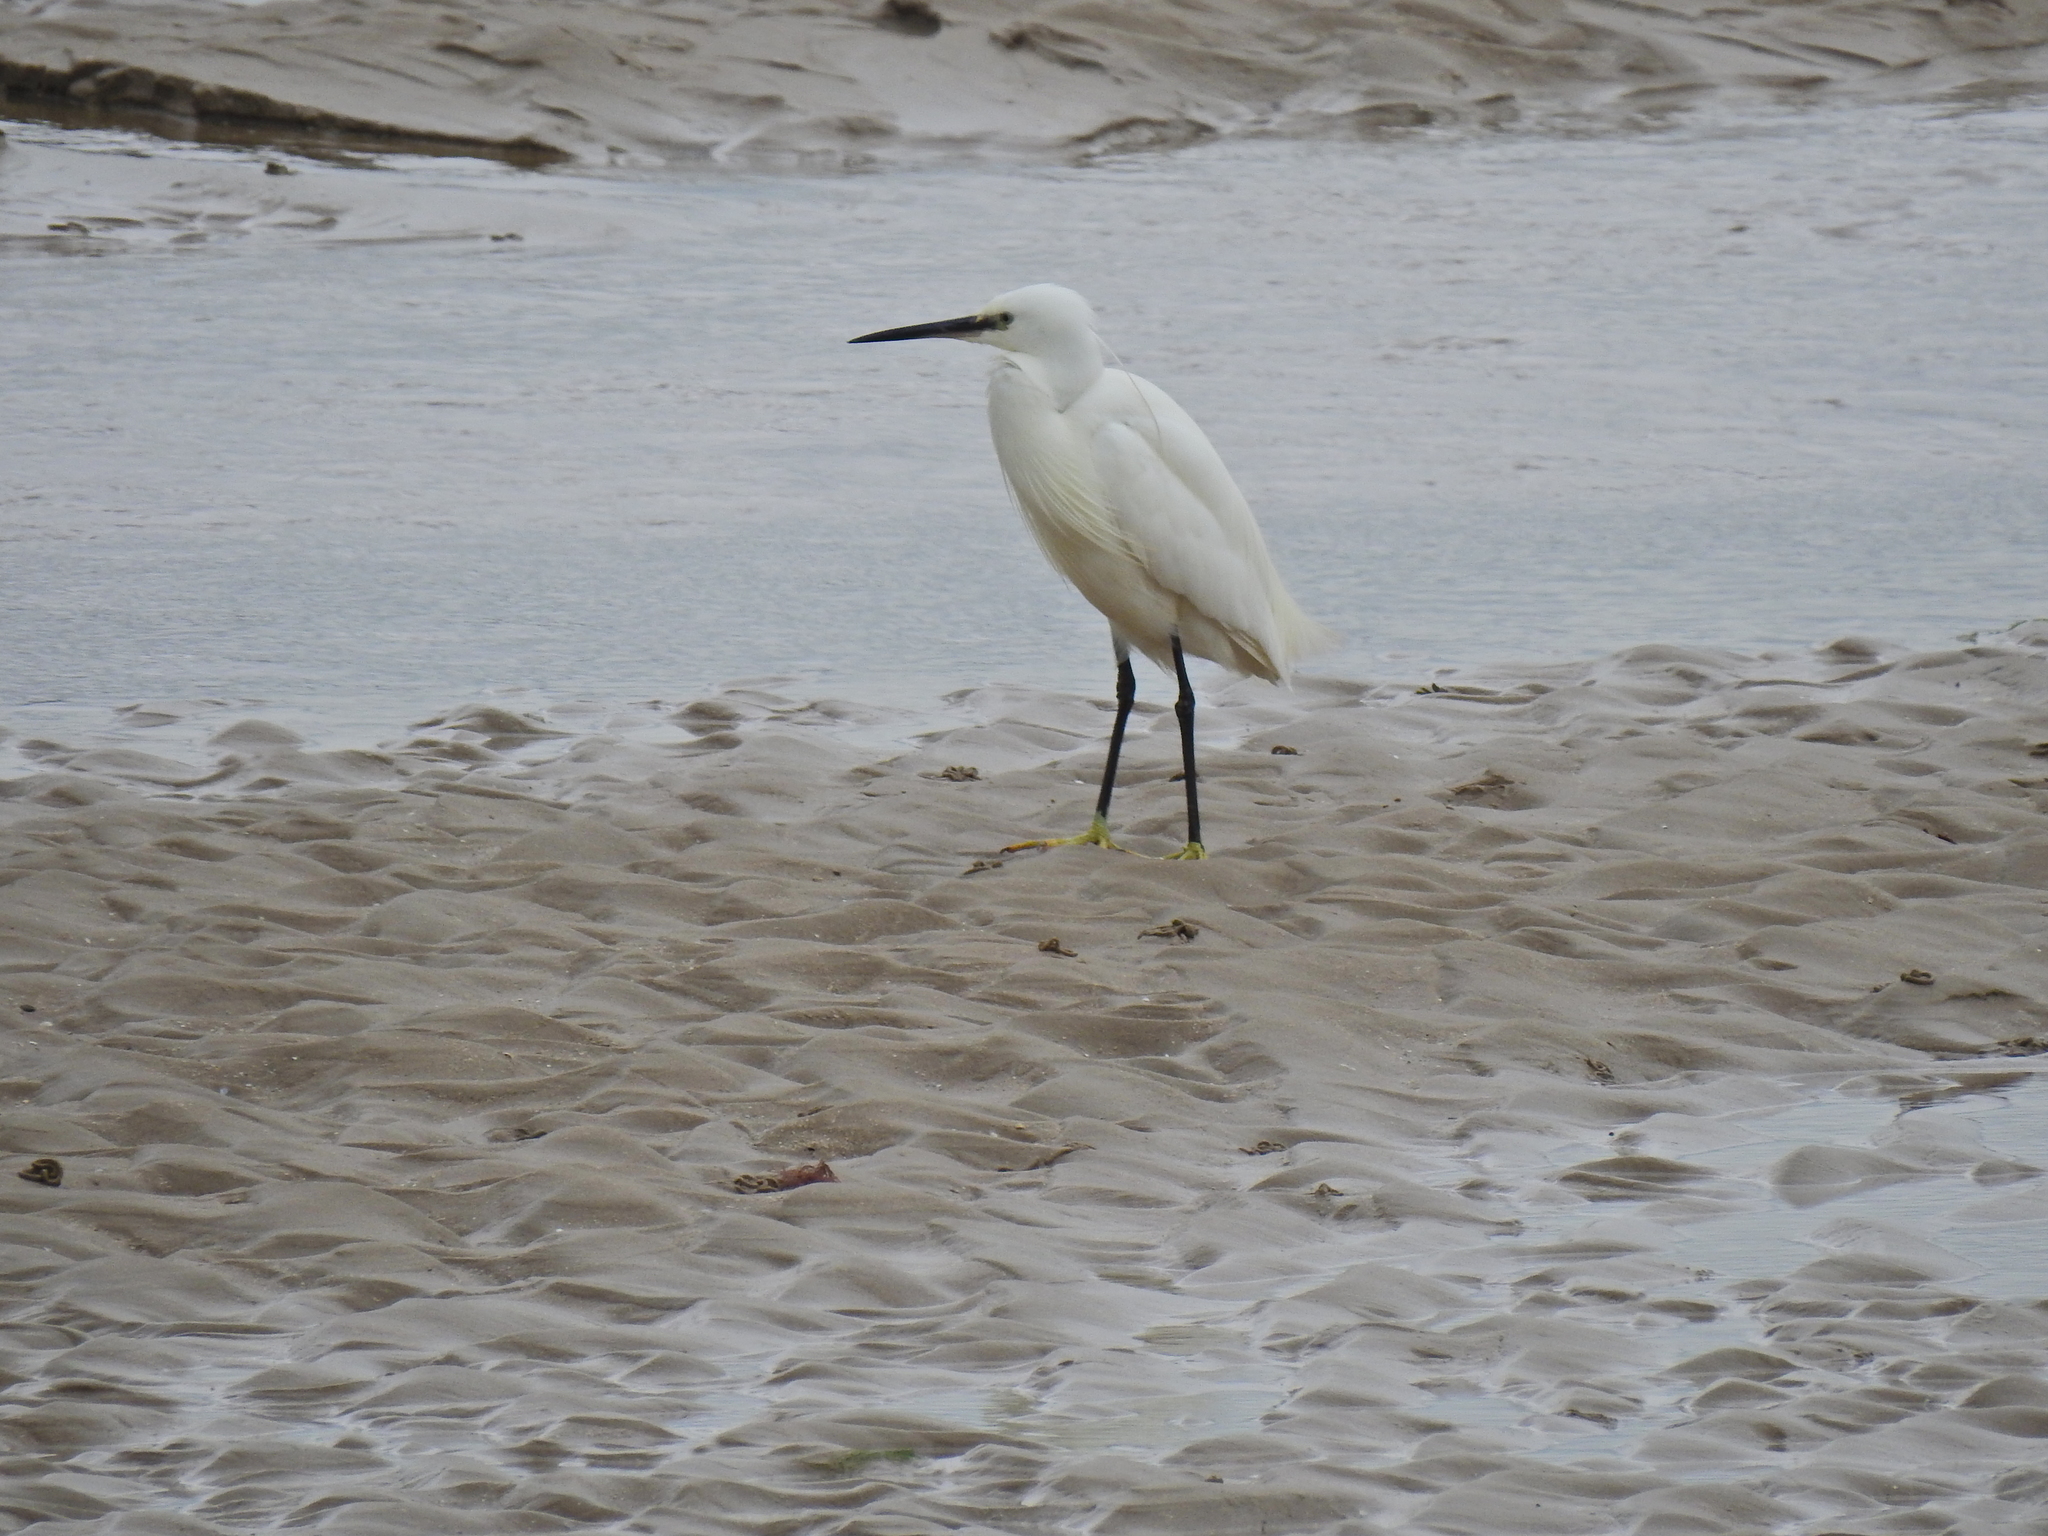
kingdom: Animalia
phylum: Chordata
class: Aves
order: Pelecaniformes
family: Ardeidae
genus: Egretta
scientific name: Egretta garzetta
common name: Little egret
